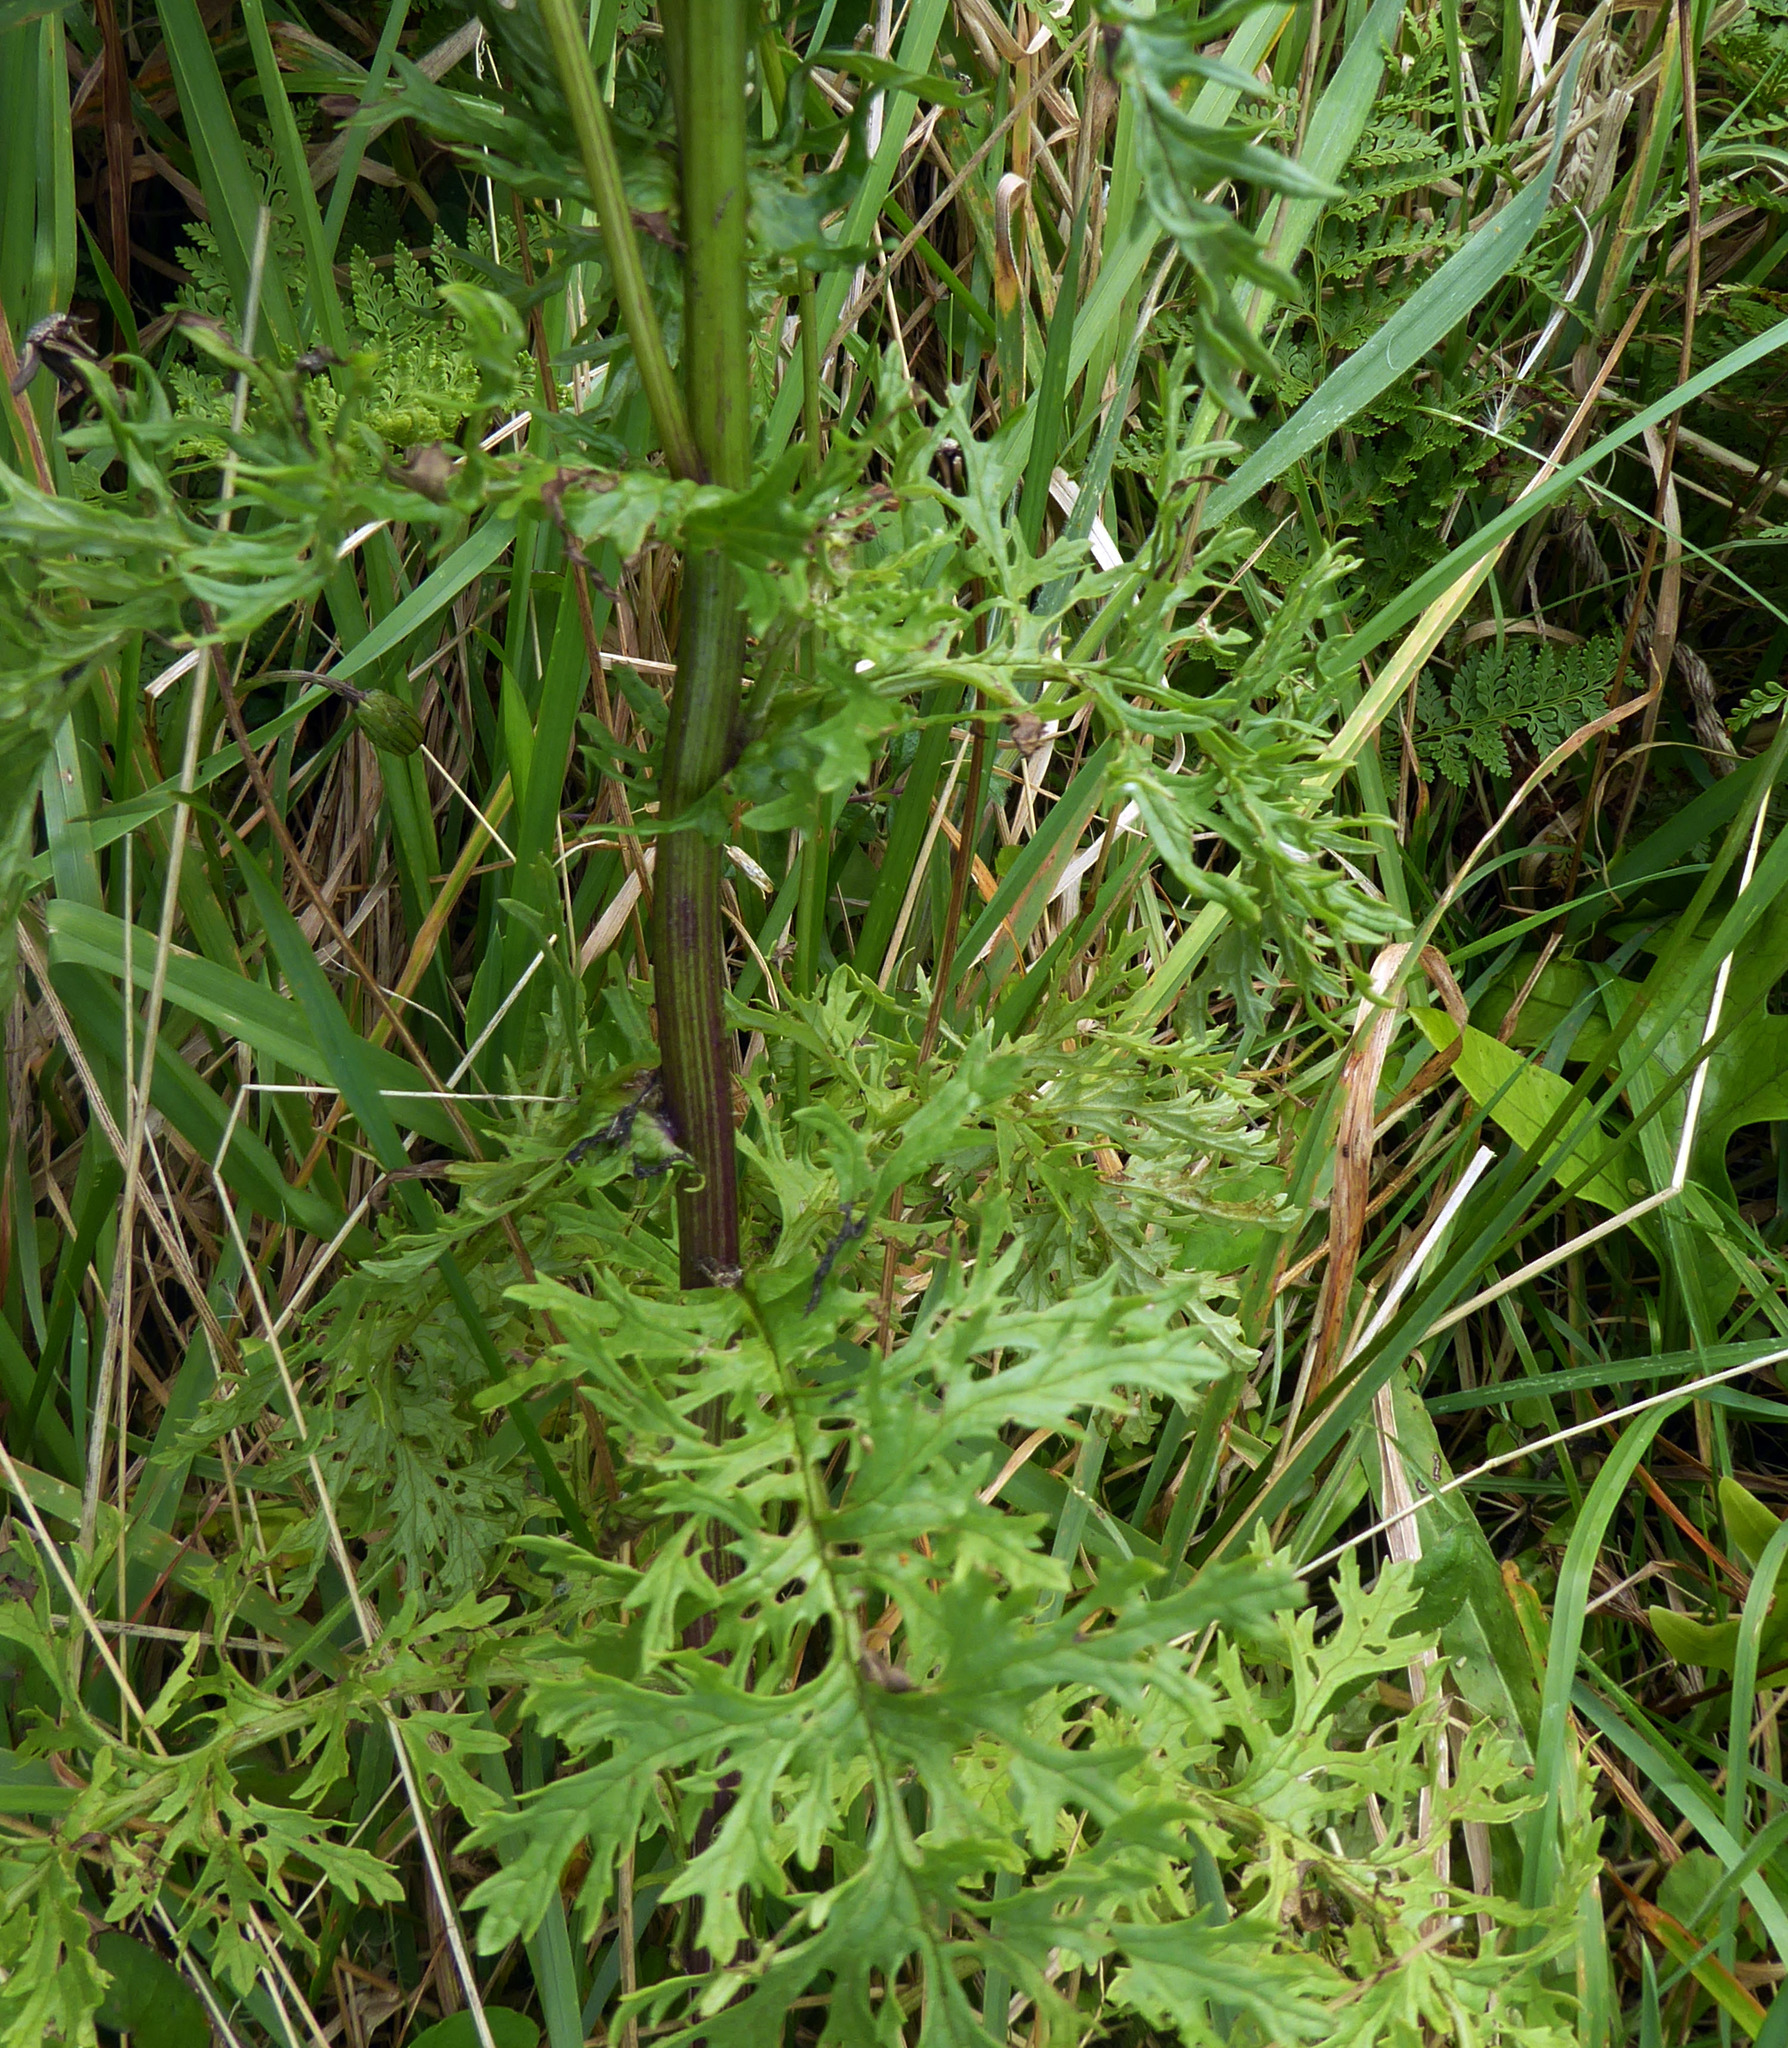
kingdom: Plantae
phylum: Tracheophyta
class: Magnoliopsida
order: Asterales
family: Asteraceae
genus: Jacobaea
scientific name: Jacobaea vulgaris
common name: Stinking willie
